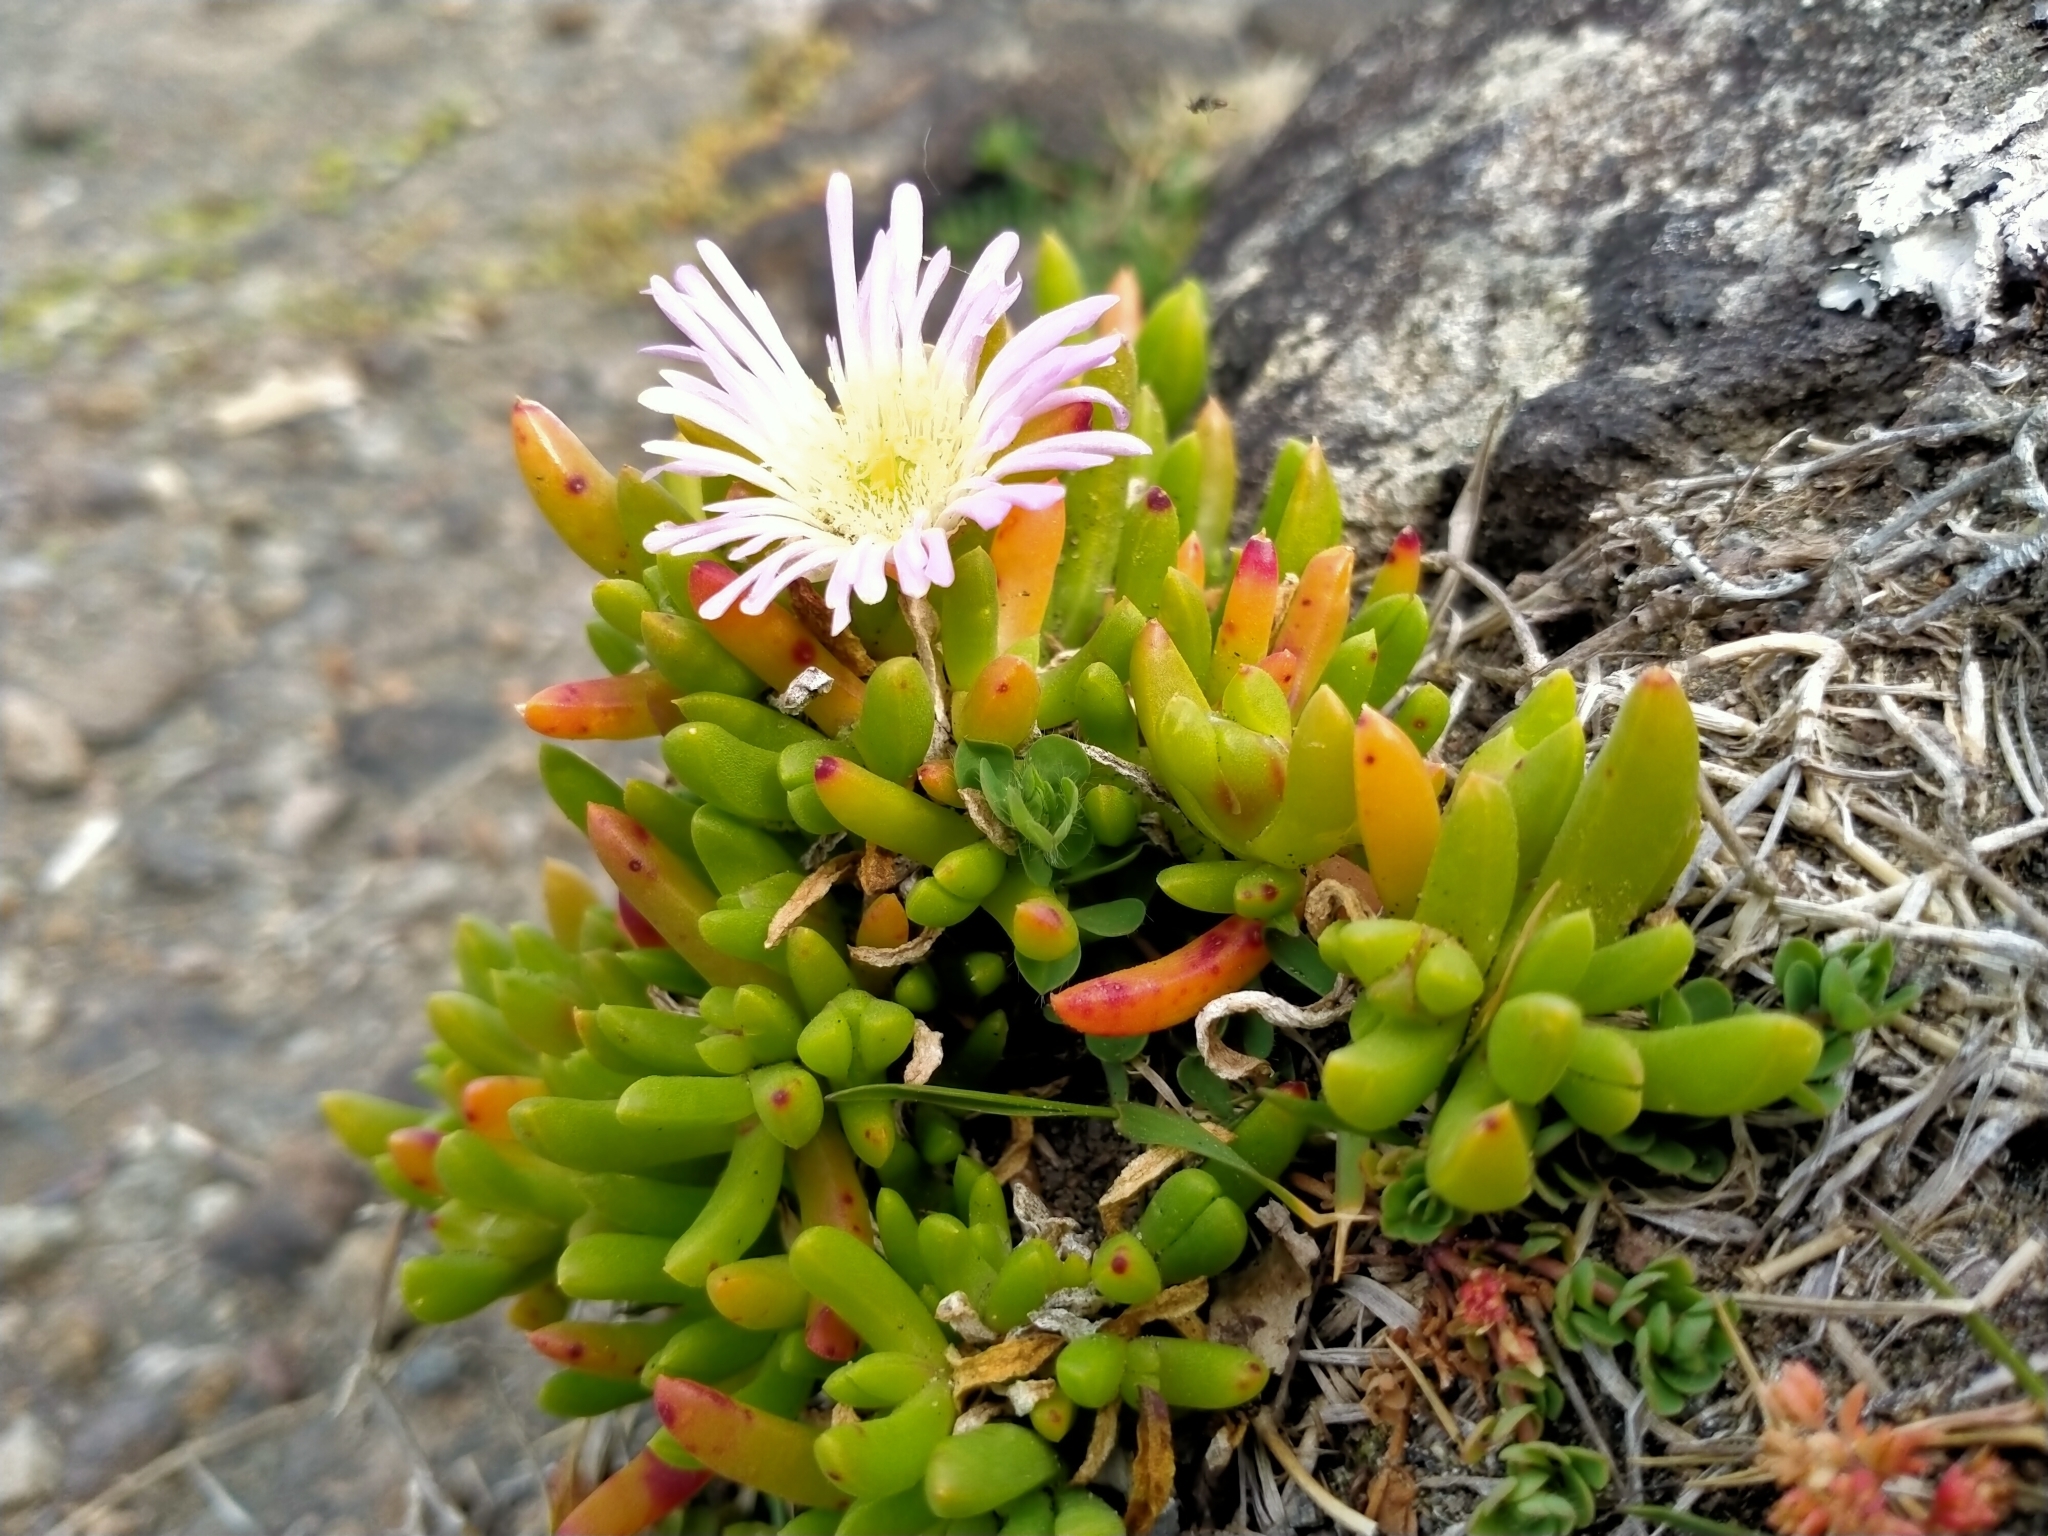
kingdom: Plantae
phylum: Tracheophyta
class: Magnoliopsida
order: Caryophyllales
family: Aizoaceae
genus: Disphyma
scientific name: Disphyma australe
